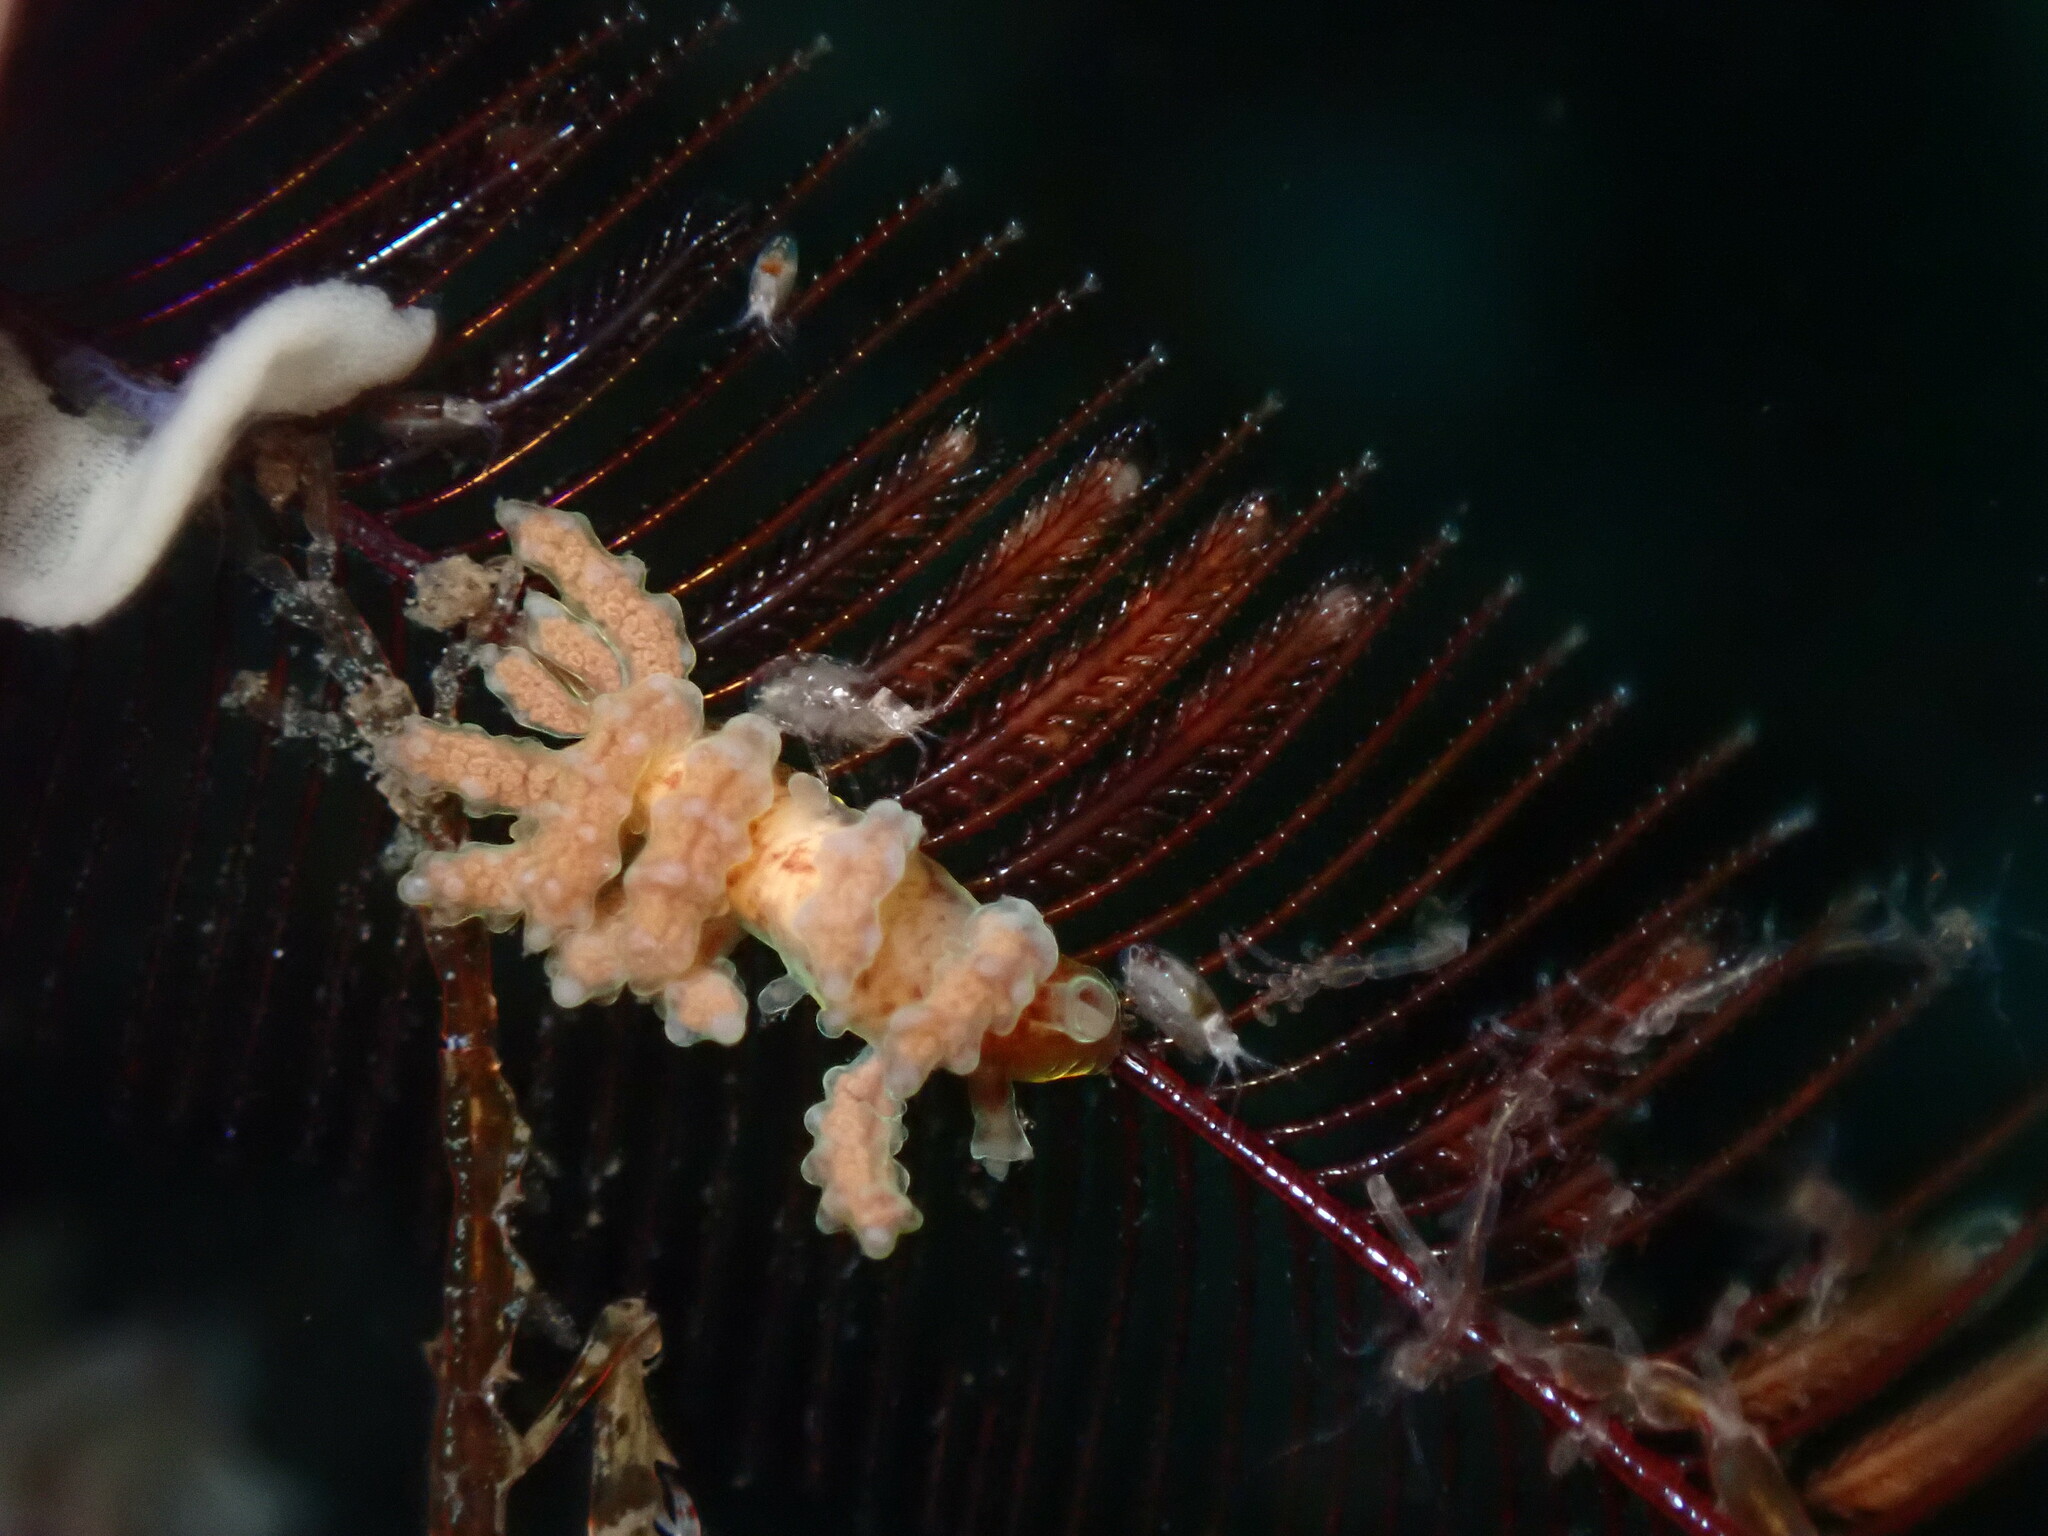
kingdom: Animalia
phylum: Mollusca
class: Gastropoda
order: Nudibranchia
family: Dotidae
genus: Doto
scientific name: Doto columbiana
